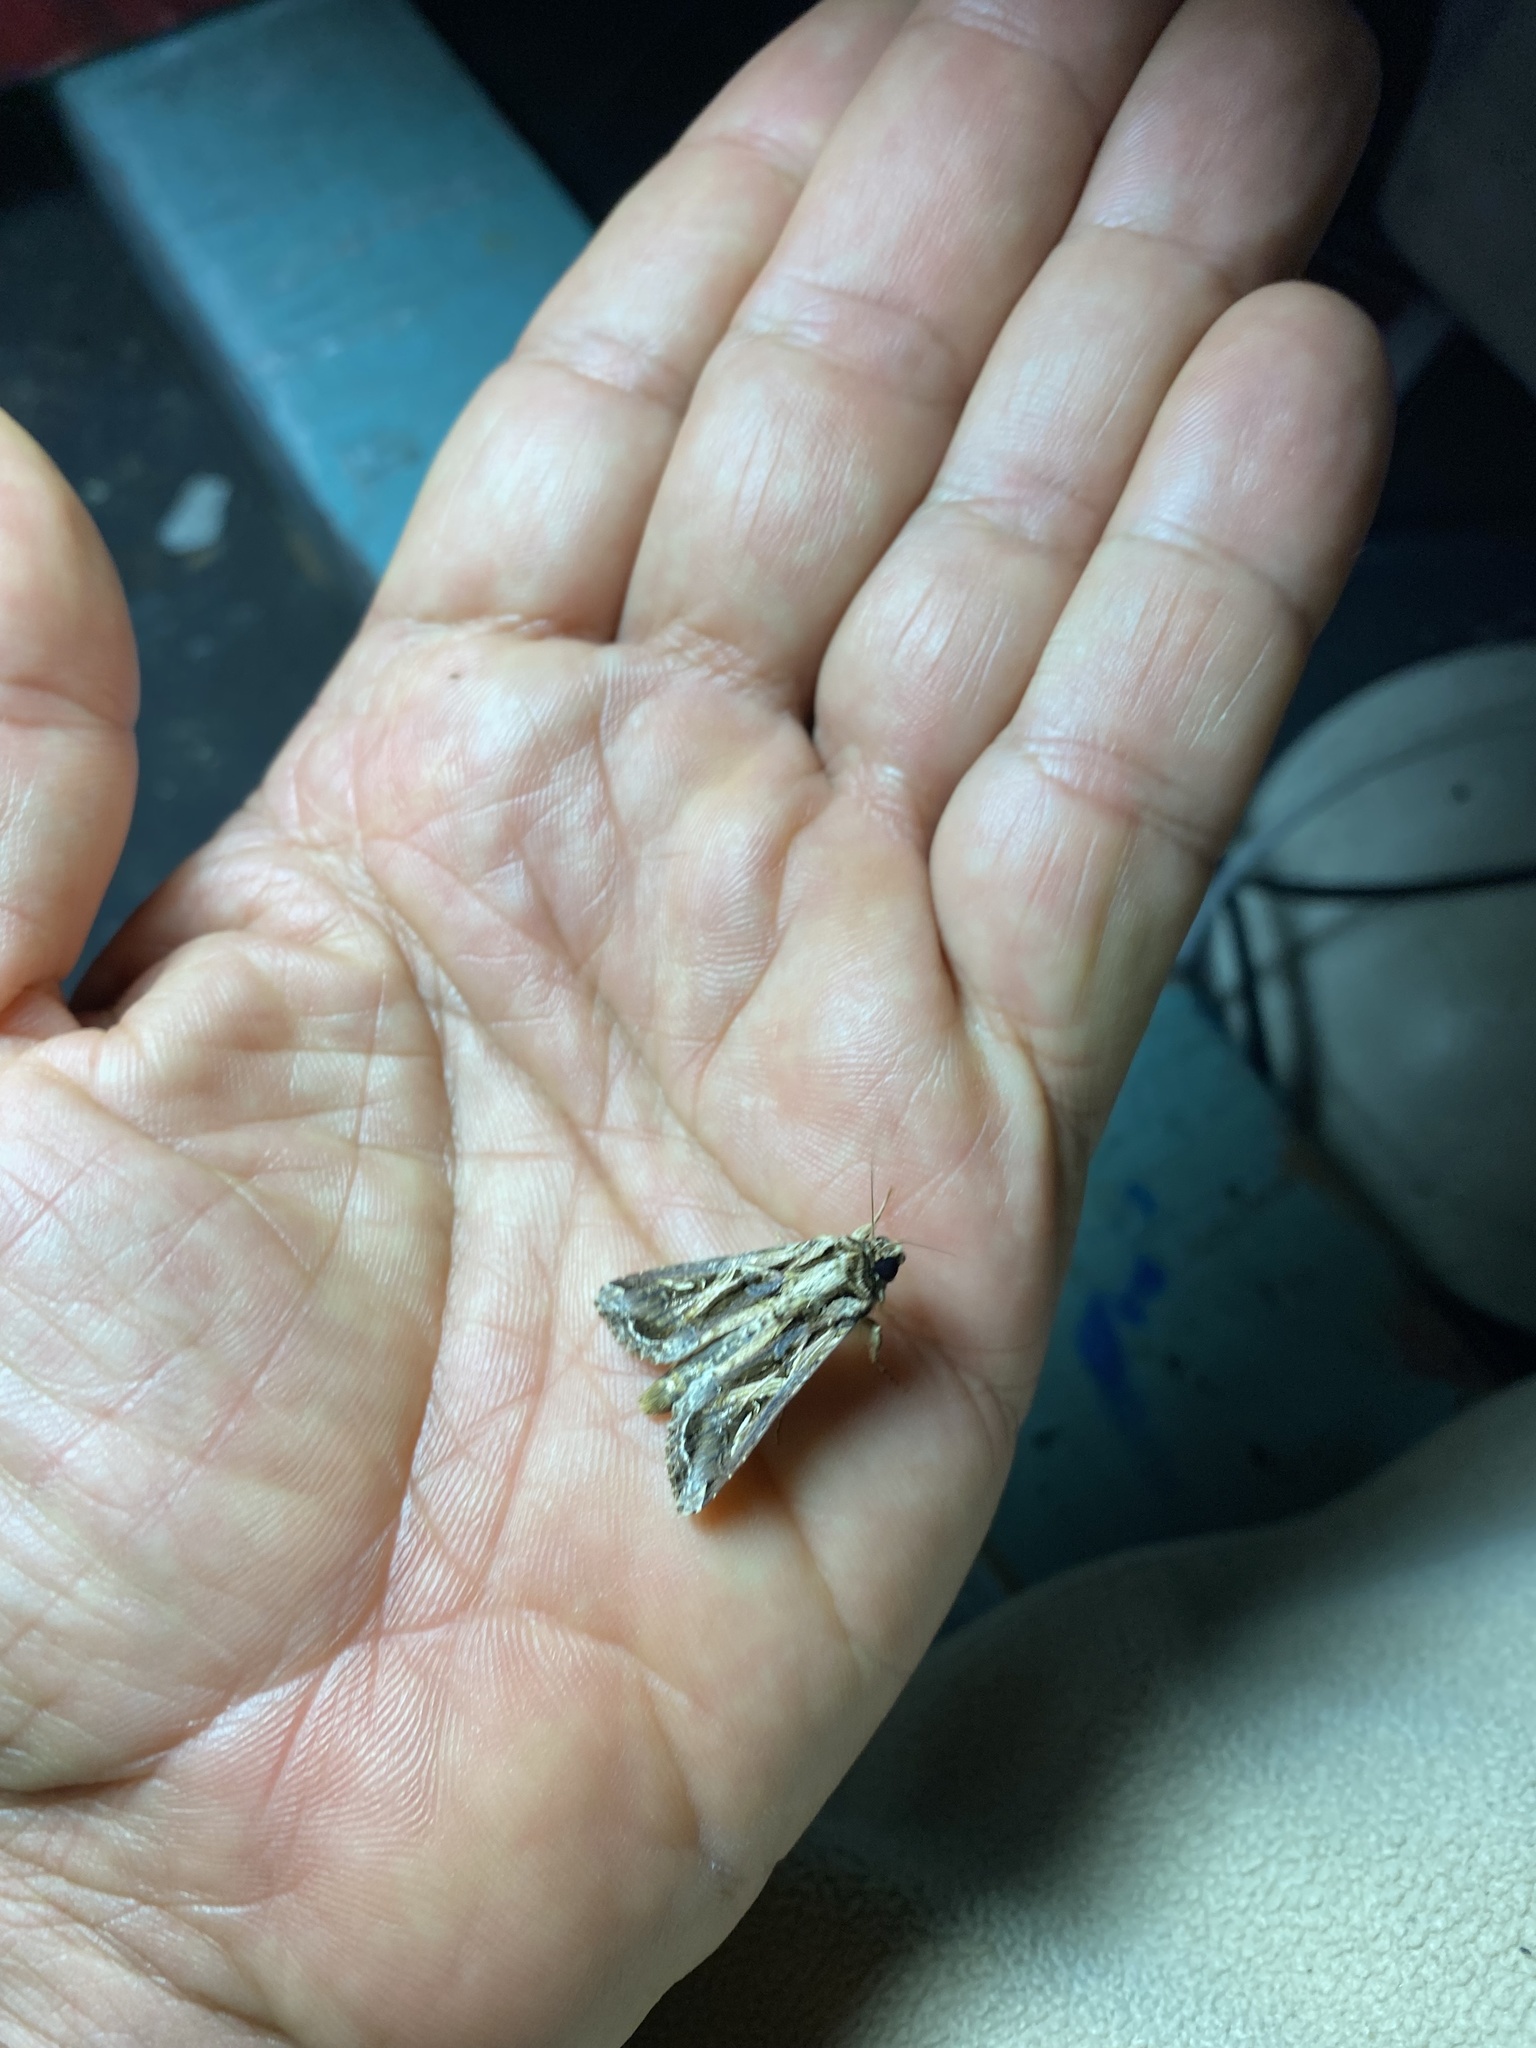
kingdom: Animalia
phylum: Arthropoda
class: Insecta
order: Lepidoptera
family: Noctuidae
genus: Spodoptera
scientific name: Spodoptera dolichos
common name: Sweetpotato armyworm
